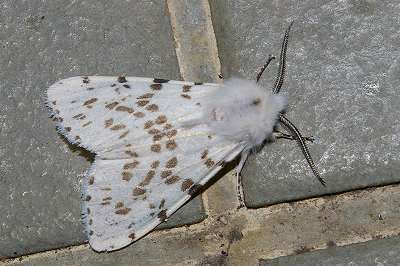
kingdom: Animalia
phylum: Arthropoda
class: Insecta
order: Lepidoptera
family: Erebidae
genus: Hyphantria
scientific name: Hyphantria cunea
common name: American white moth
